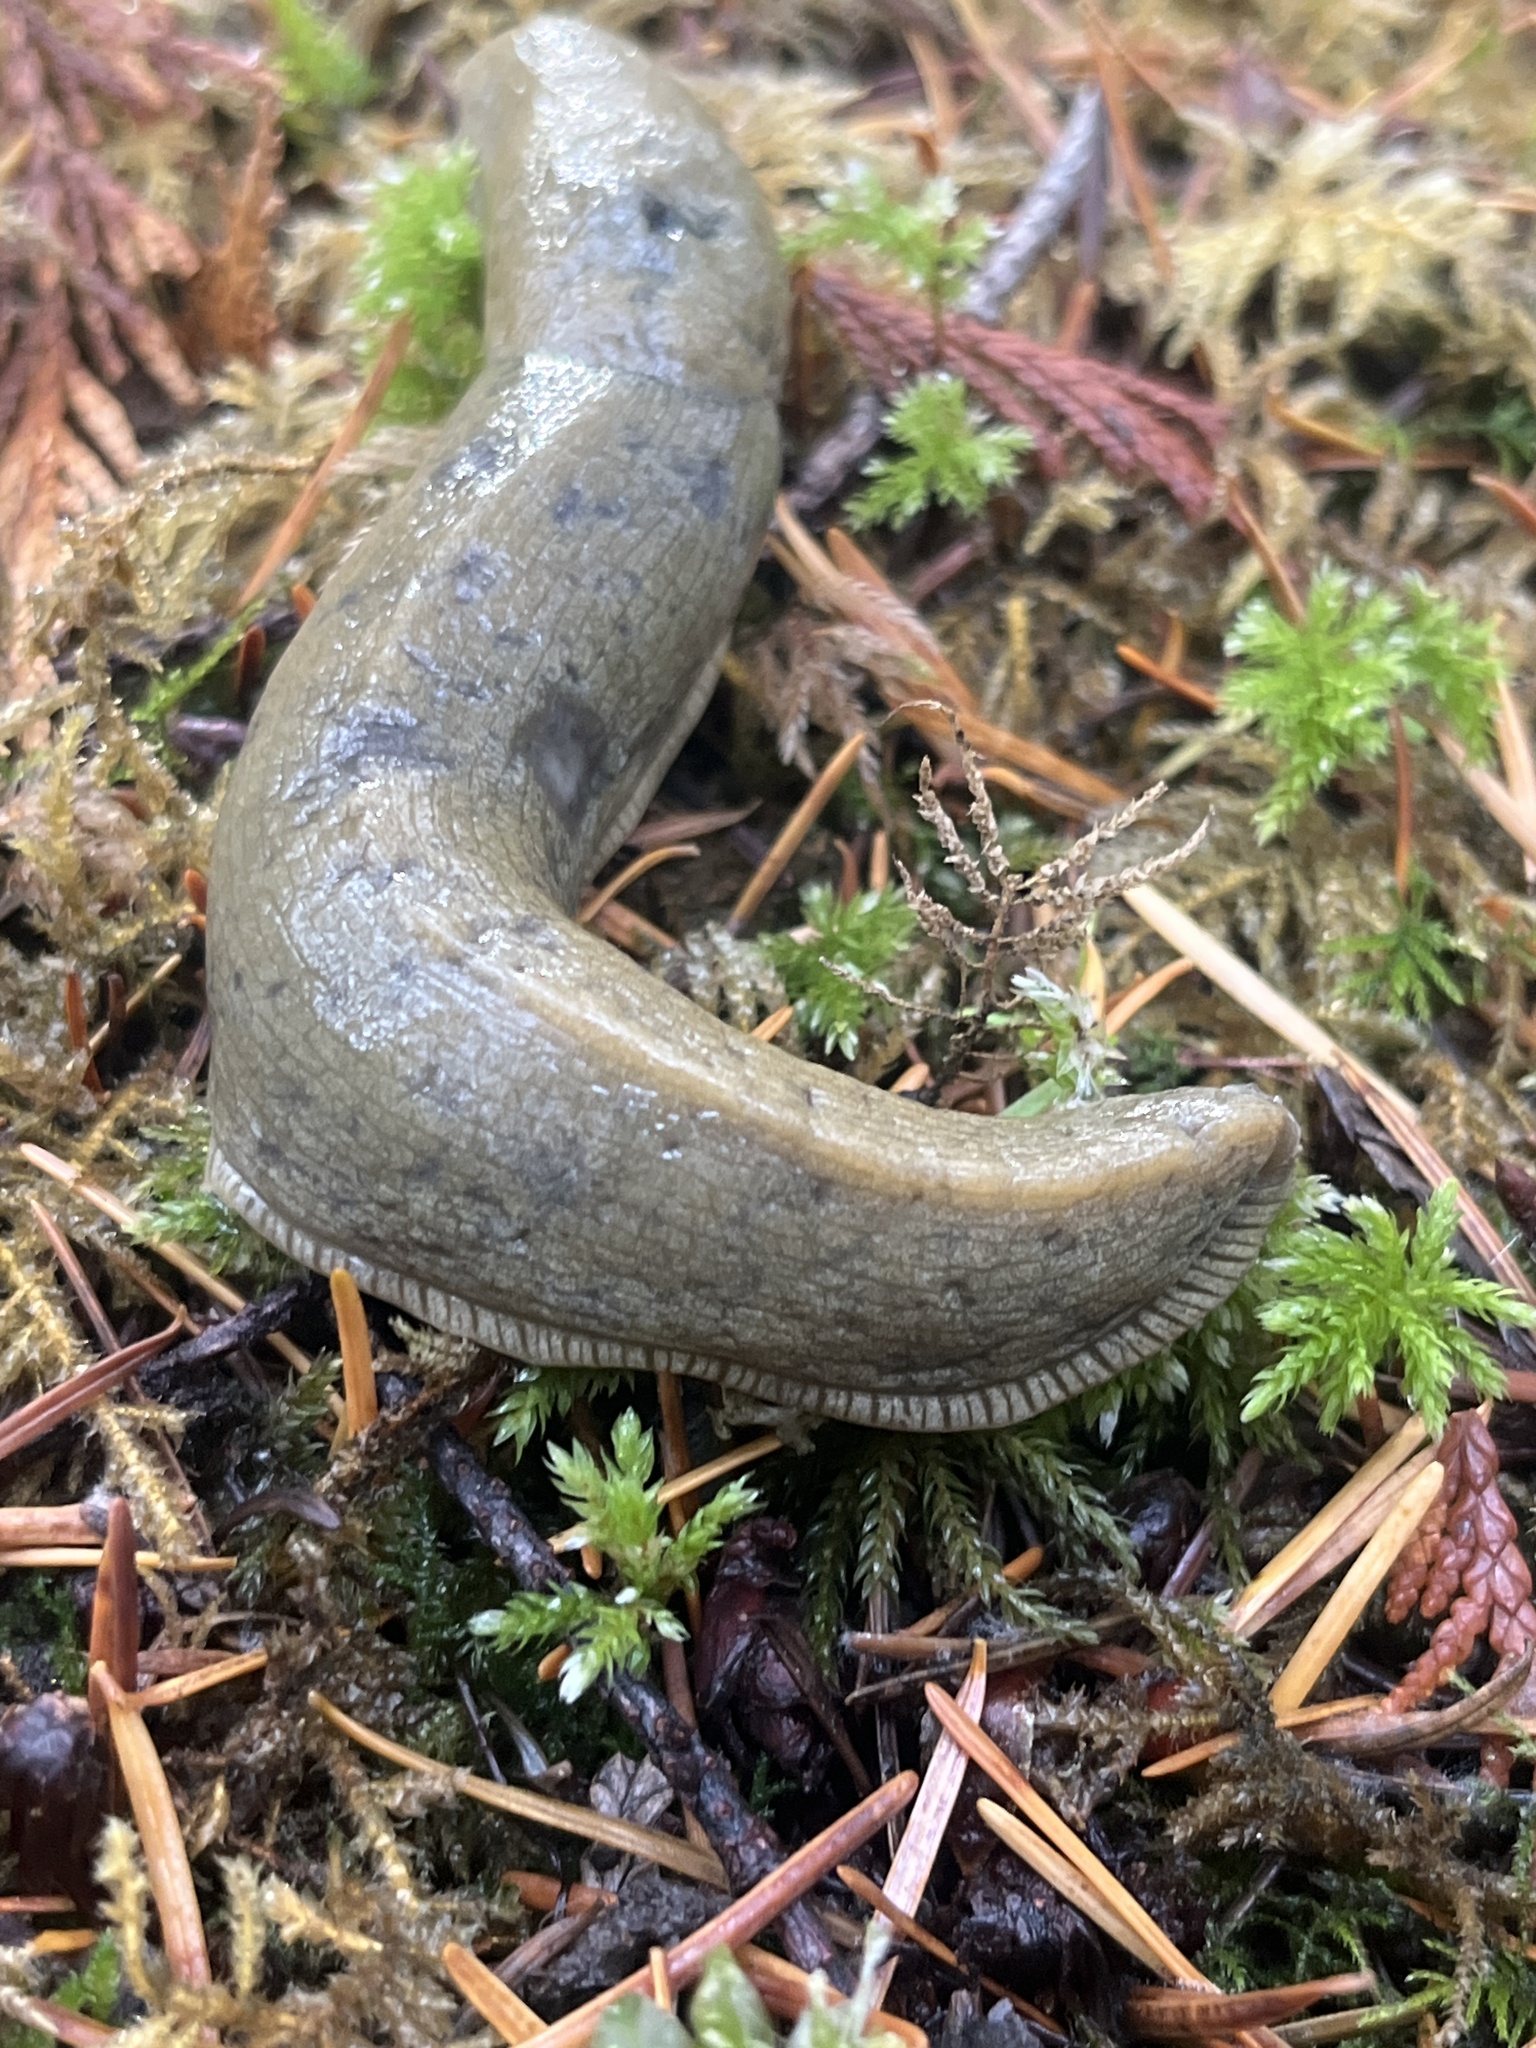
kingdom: Animalia
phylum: Mollusca
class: Gastropoda
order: Stylommatophora
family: Ariolimacidae
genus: Ariolimax
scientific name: Ariolimax columbianus
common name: Pacific banana slug
